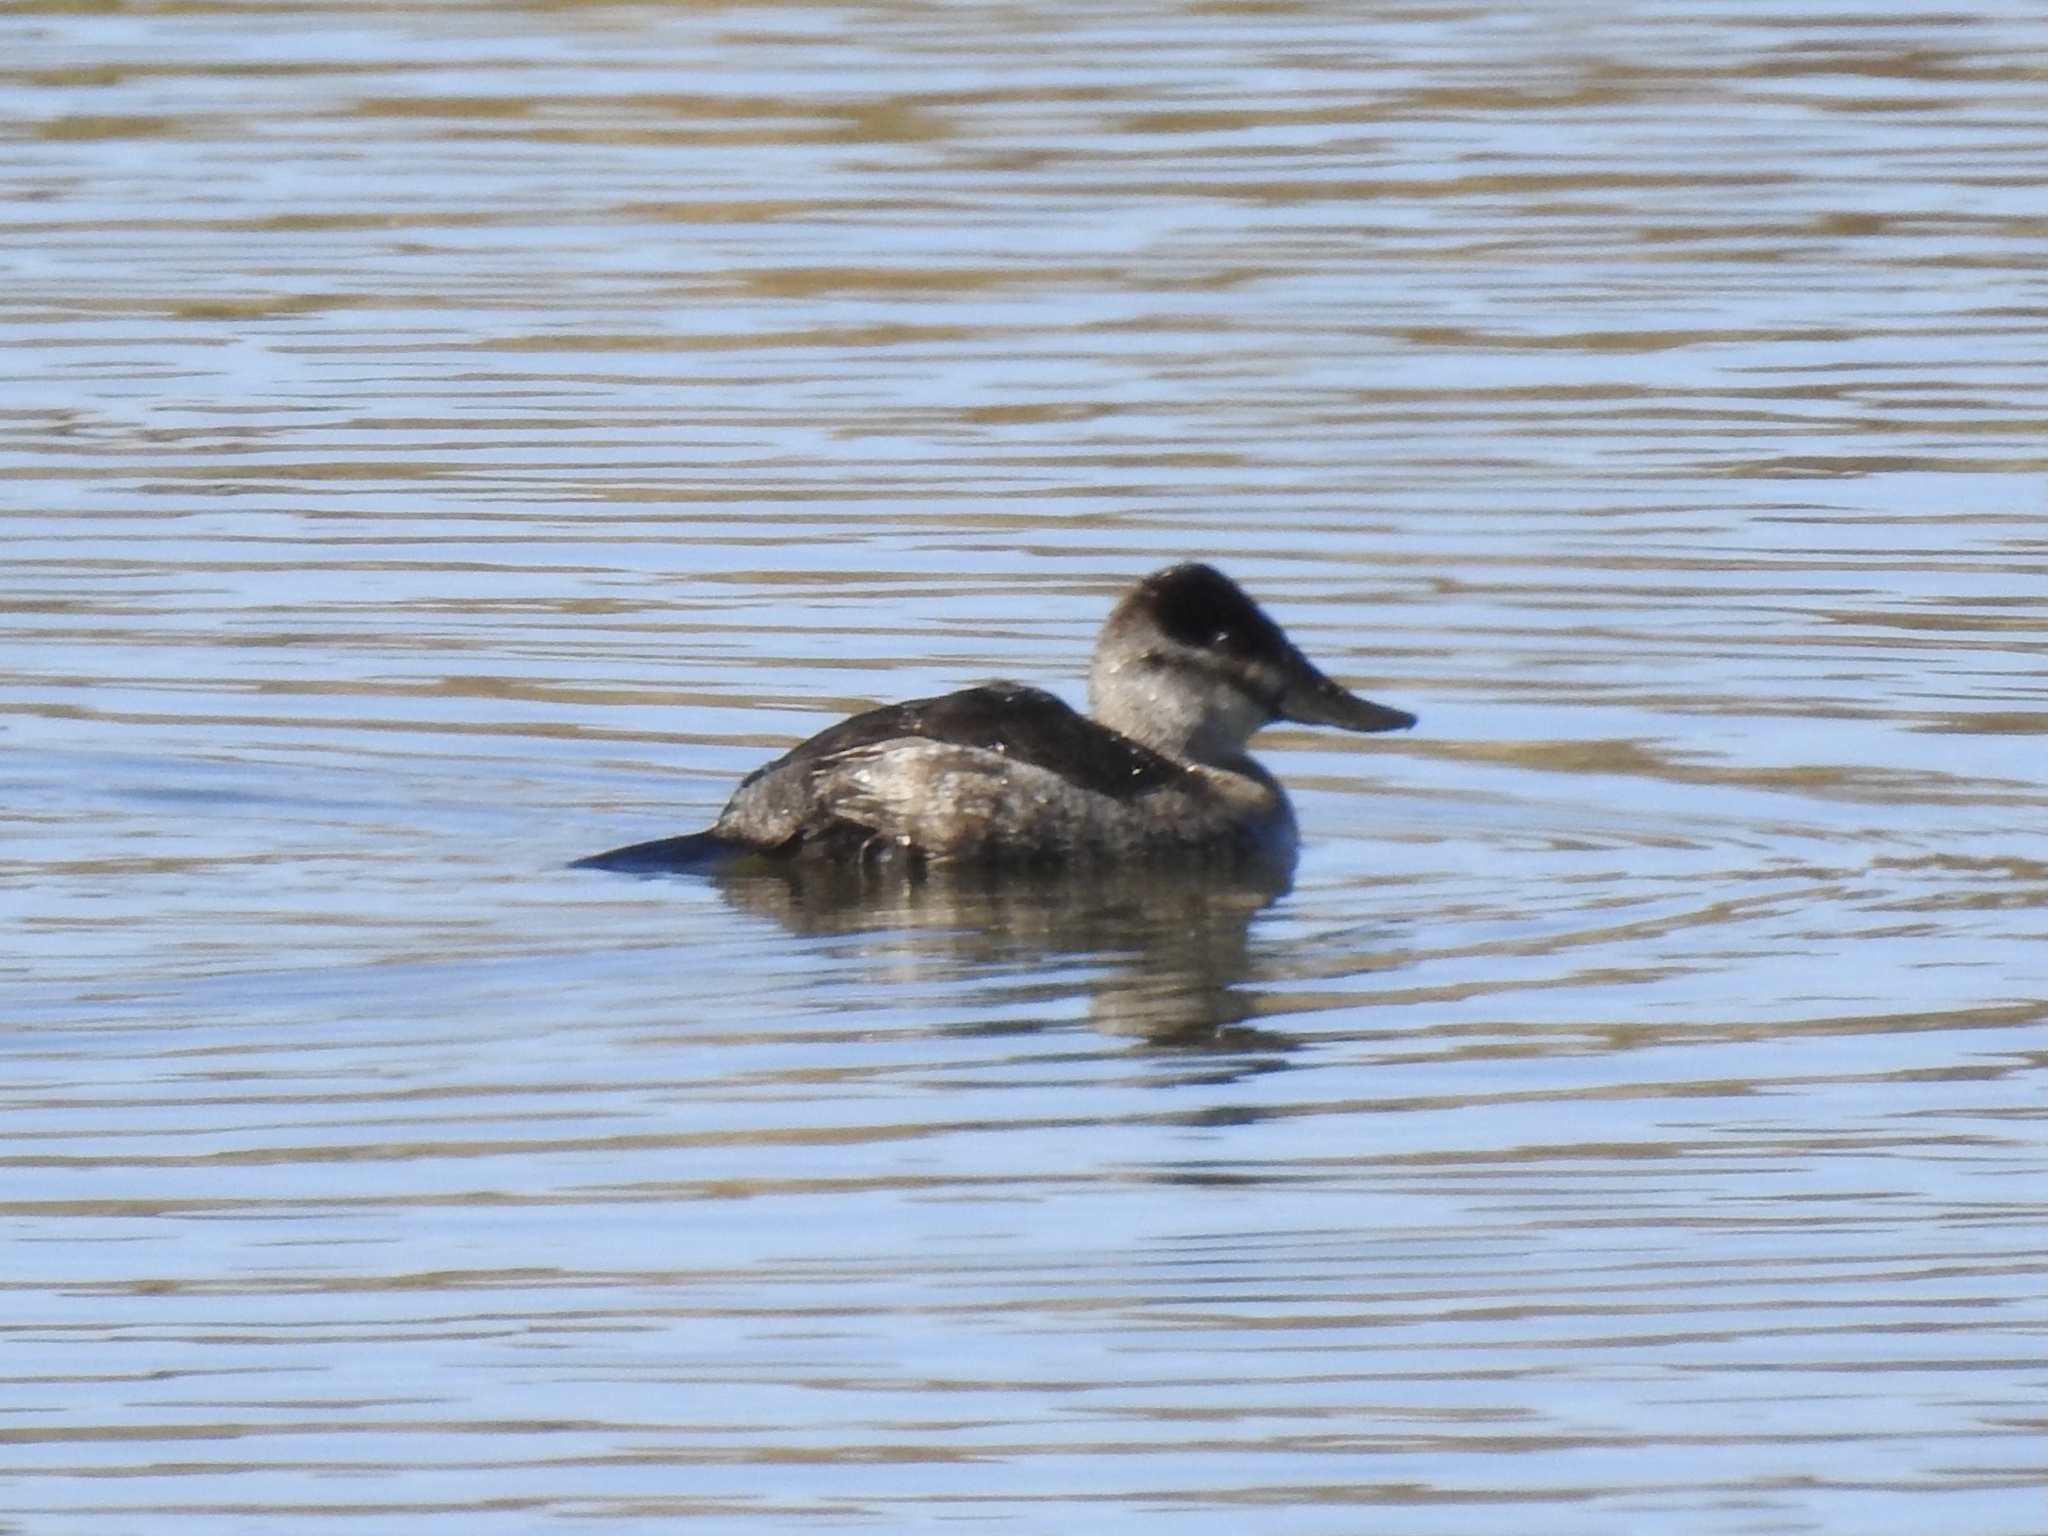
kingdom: Animalia
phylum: Chordata
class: Aves
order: Anseriformes
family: Anatidae
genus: Oxyura
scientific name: Oxyura jamaicensis
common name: Ruddy duck
